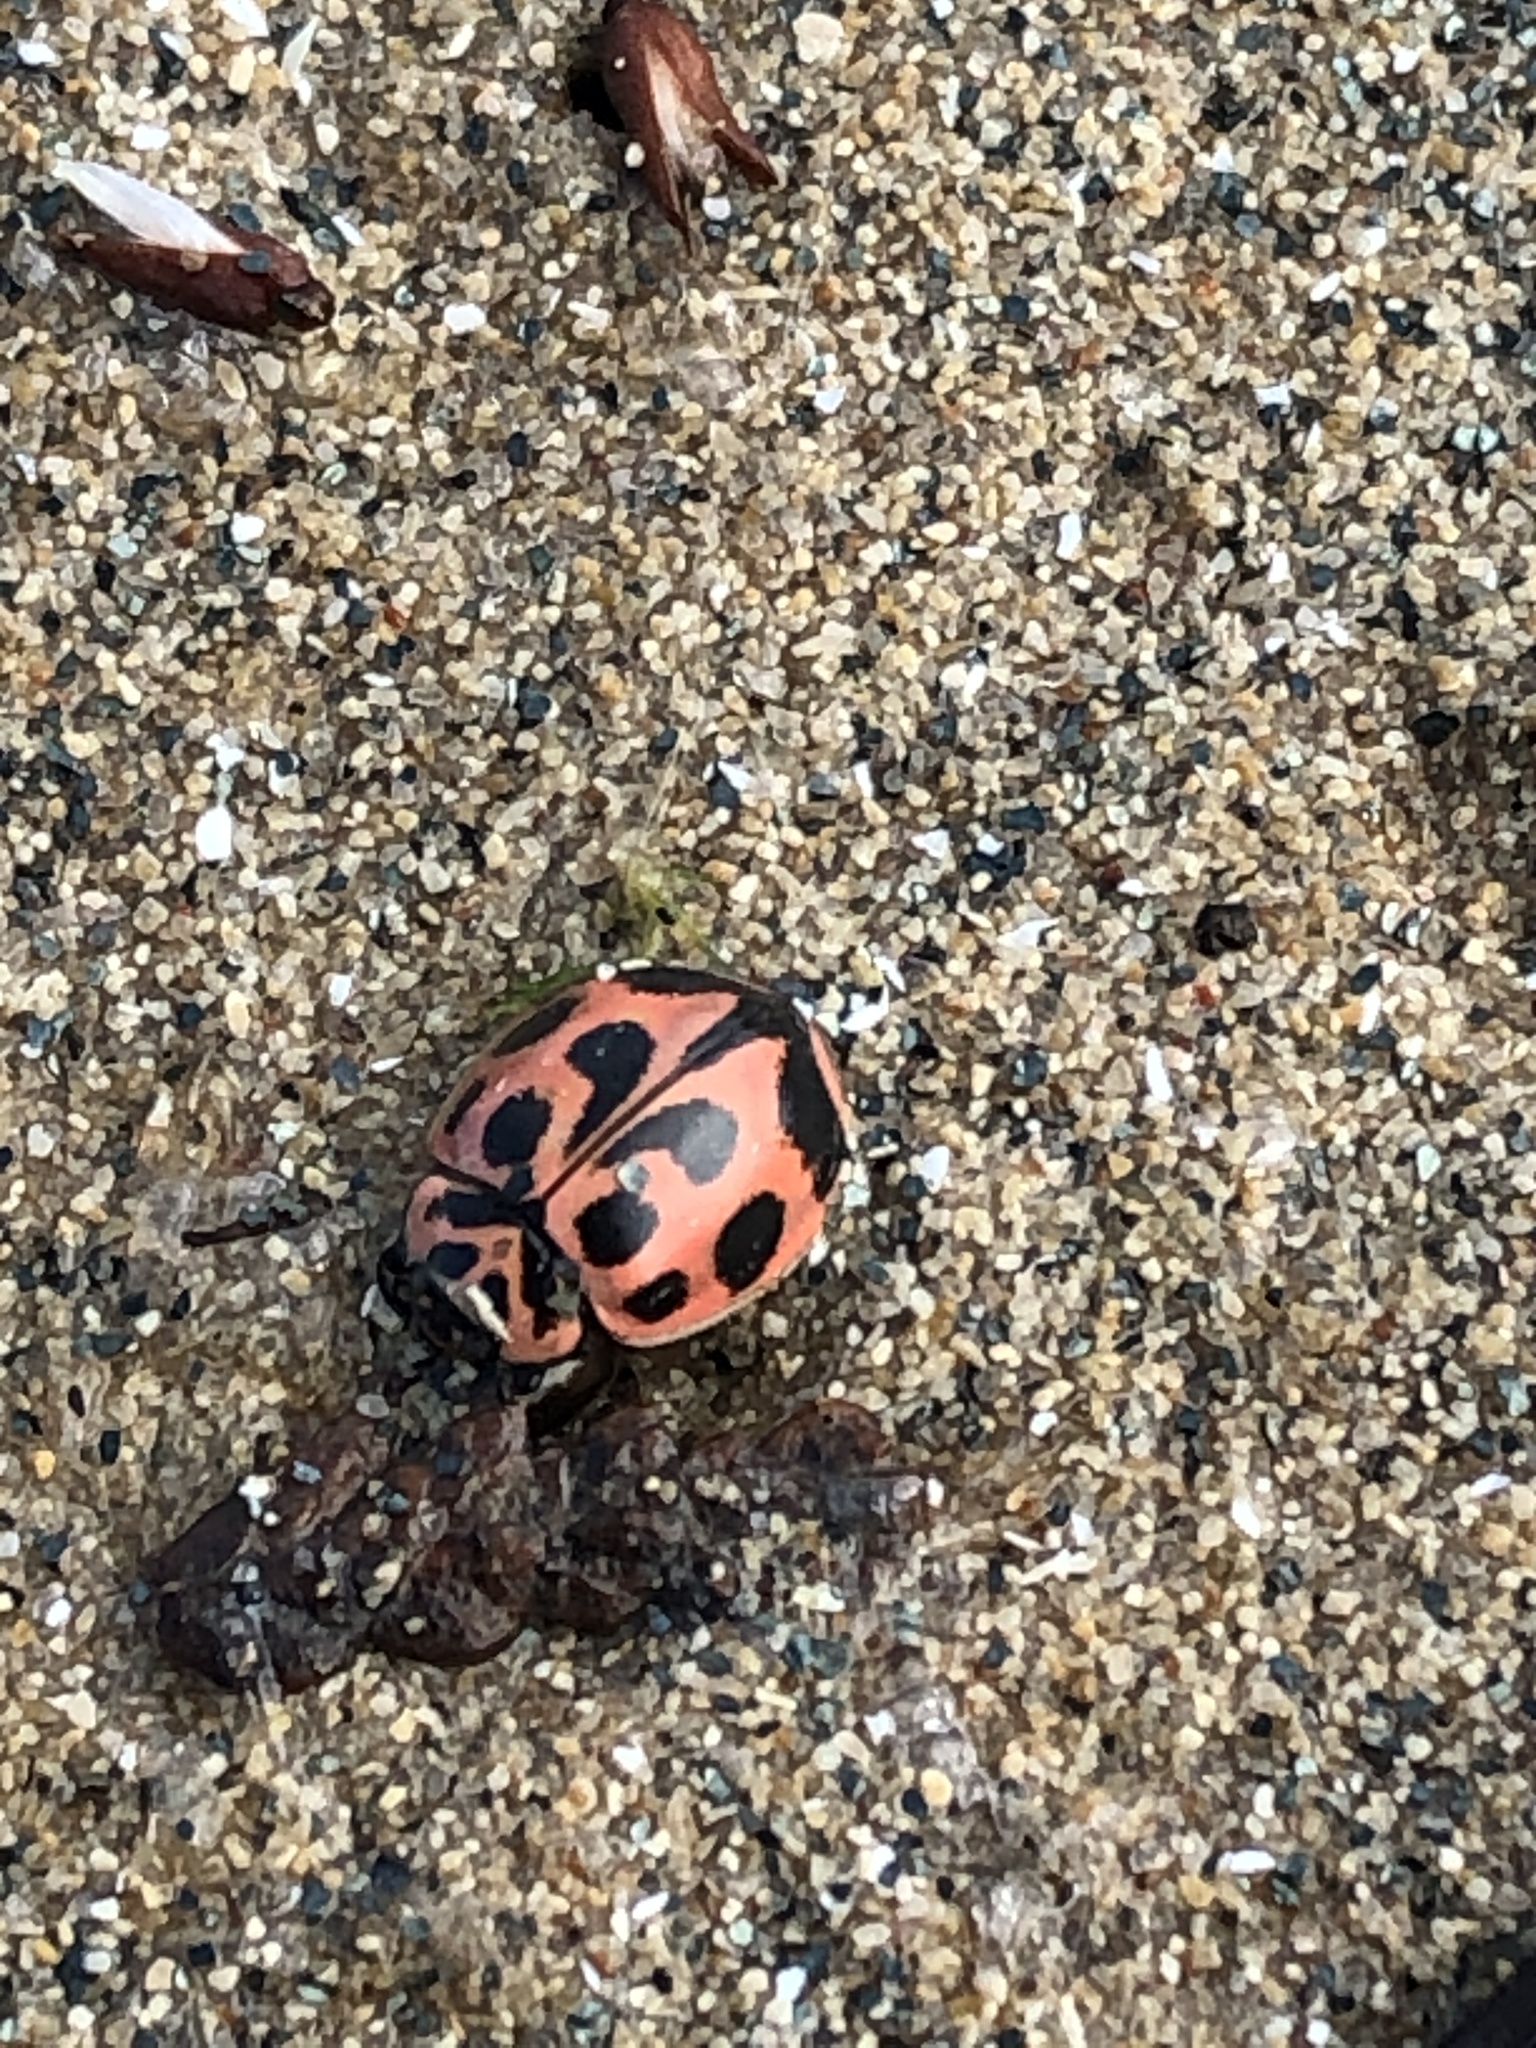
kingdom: Animalia
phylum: Arthropoda
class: Insecta
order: Coleoptera
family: Coccinellidae
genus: Neoharmonia
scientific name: Neoharmonia venusta
